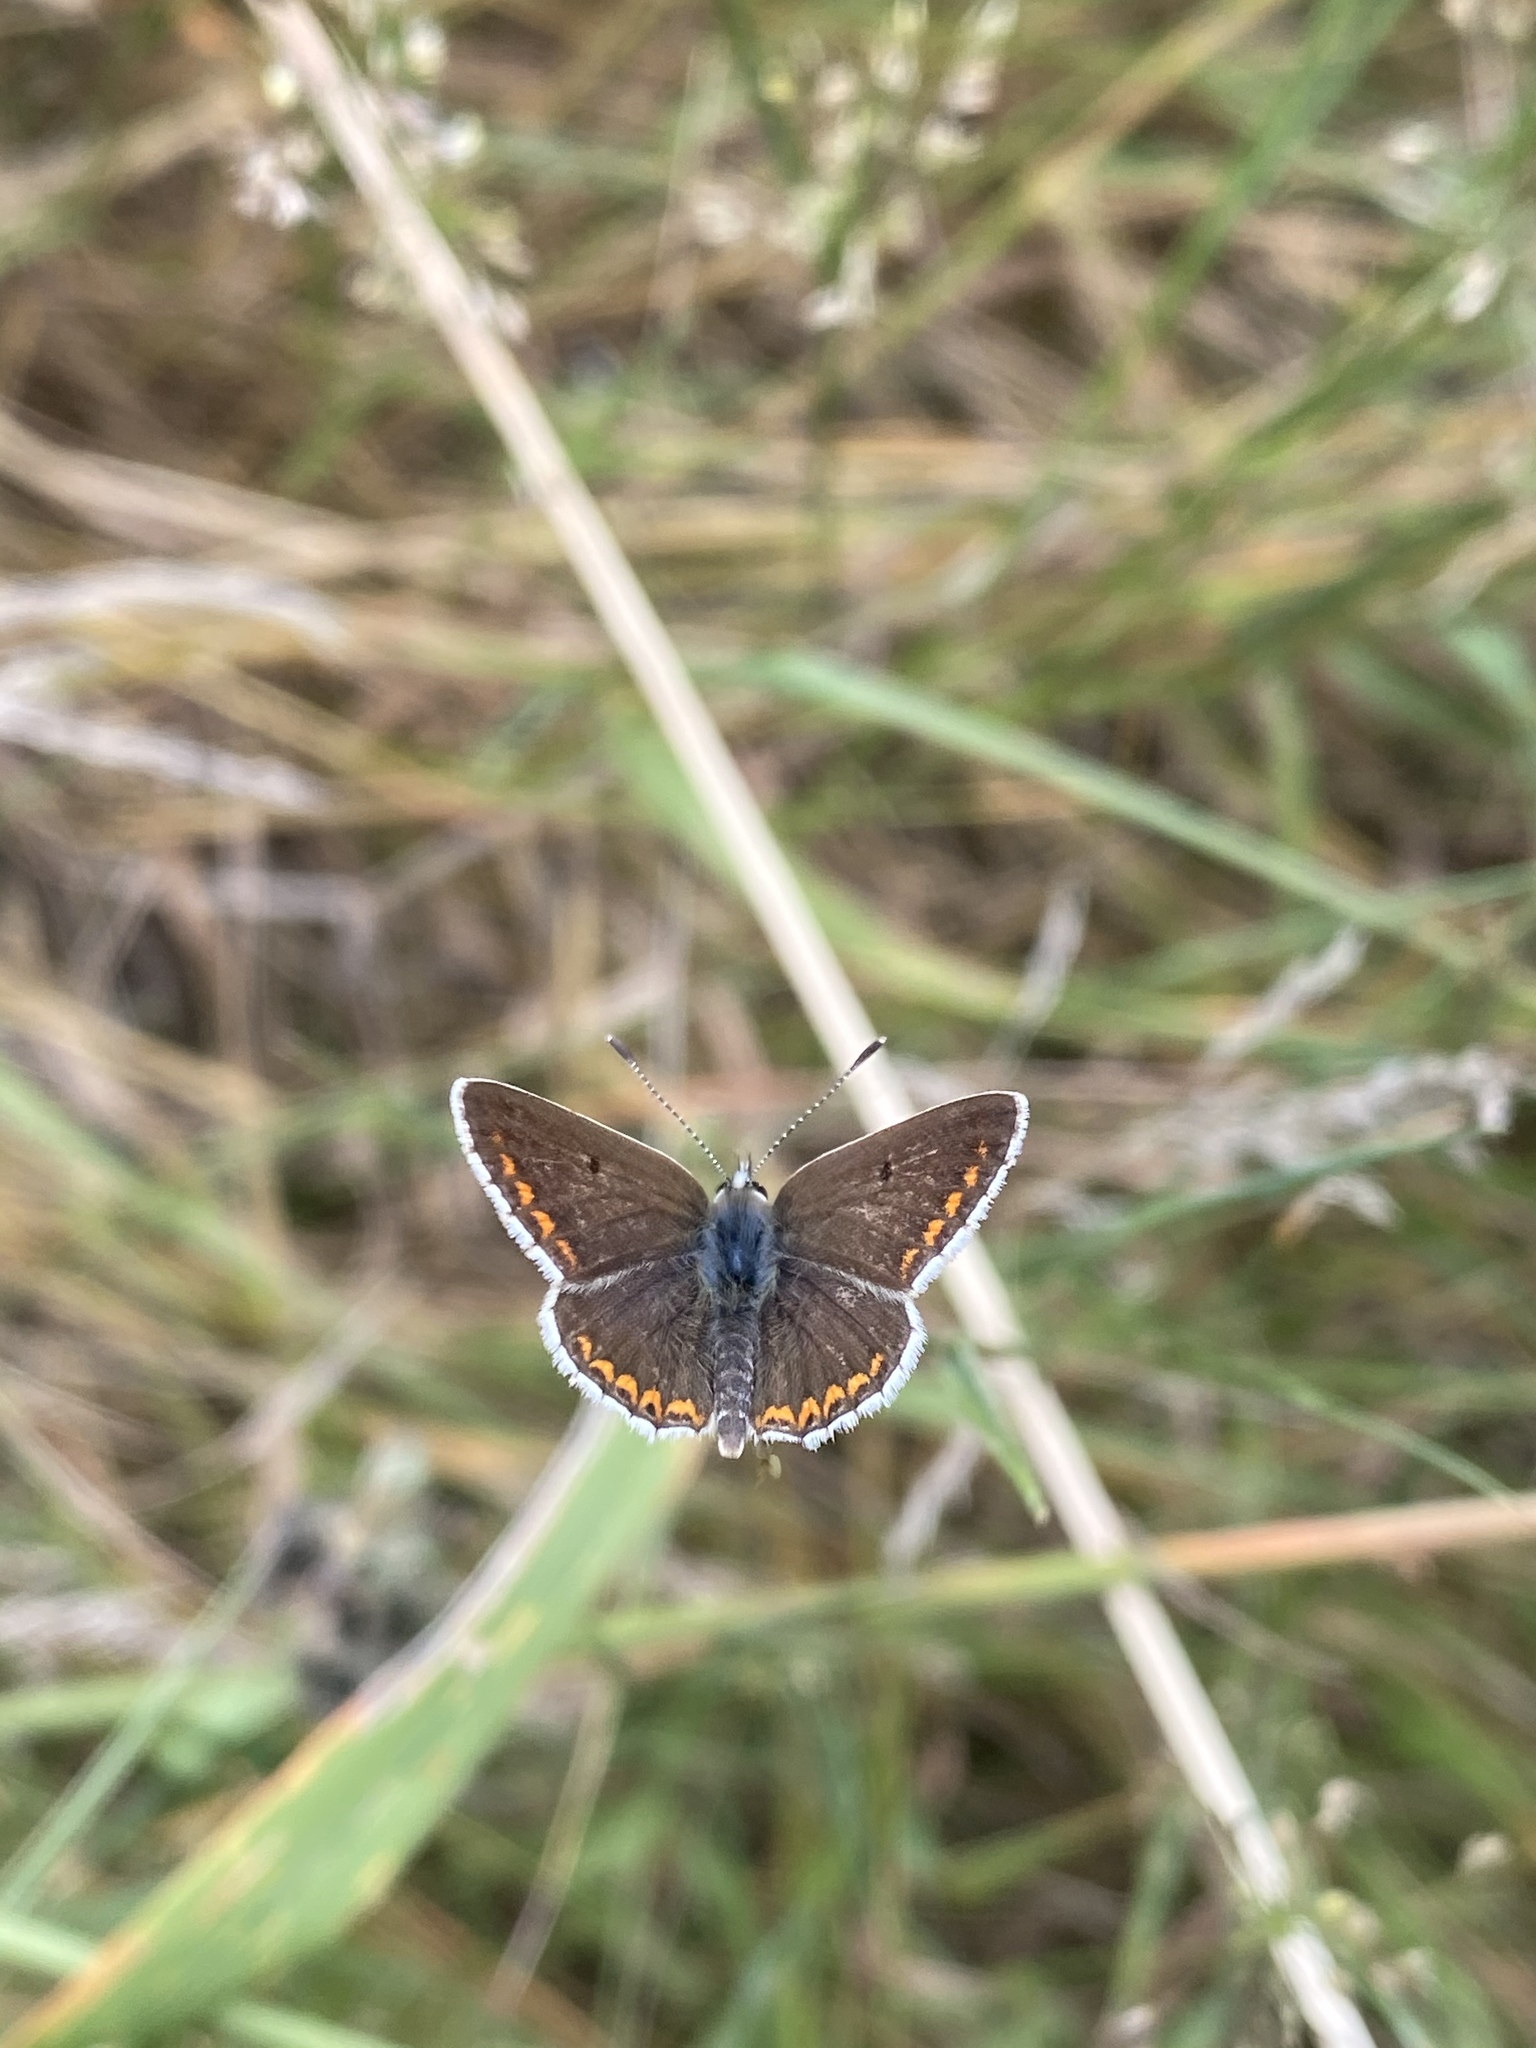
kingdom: Animalia
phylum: Arthropoda
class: Insecta
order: Lepidoptera
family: Lycaenidae
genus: Aricia
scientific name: Aricia agestis
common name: Brown argus
